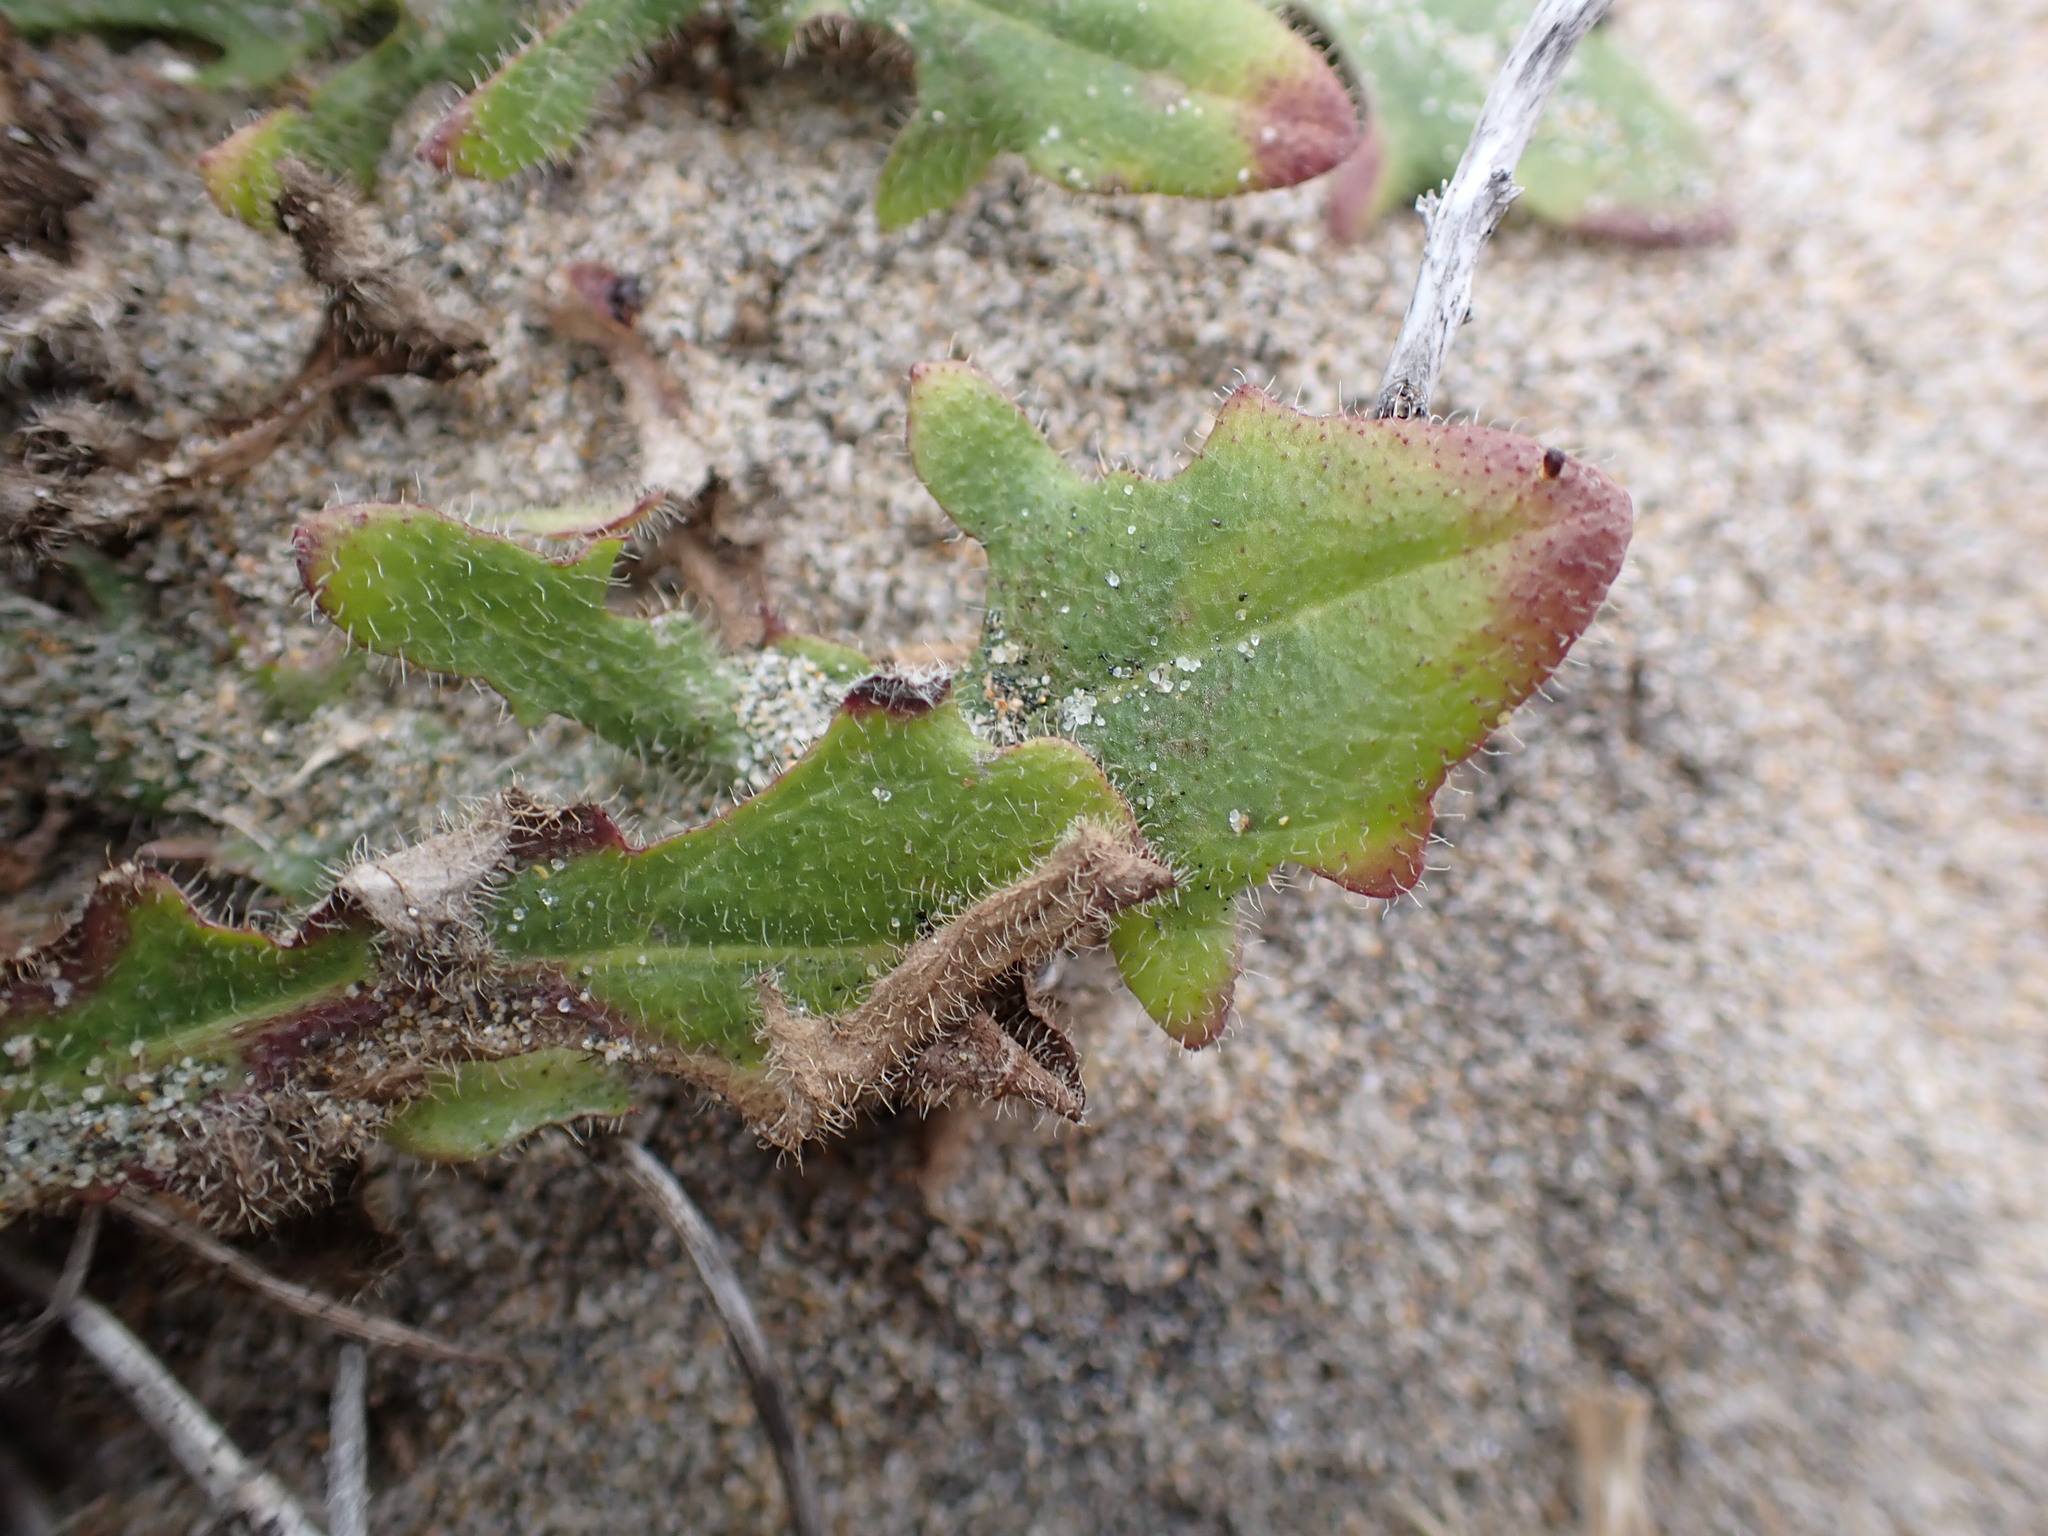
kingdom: Plantae
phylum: Tracheophyta
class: Magnoliopsida
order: Asterales
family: Asteraceae
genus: Hypochaeris
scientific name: Hypochaeris radicata
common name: Flatweed
